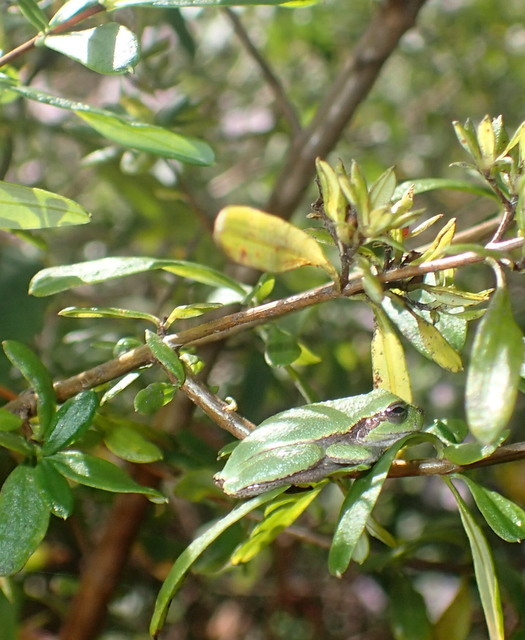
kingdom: Animalia
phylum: Chordata
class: Amphibia
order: Anura
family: Hylidae
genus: Dryophytes
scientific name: Dryophytes cinereus
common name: Green treefrog
